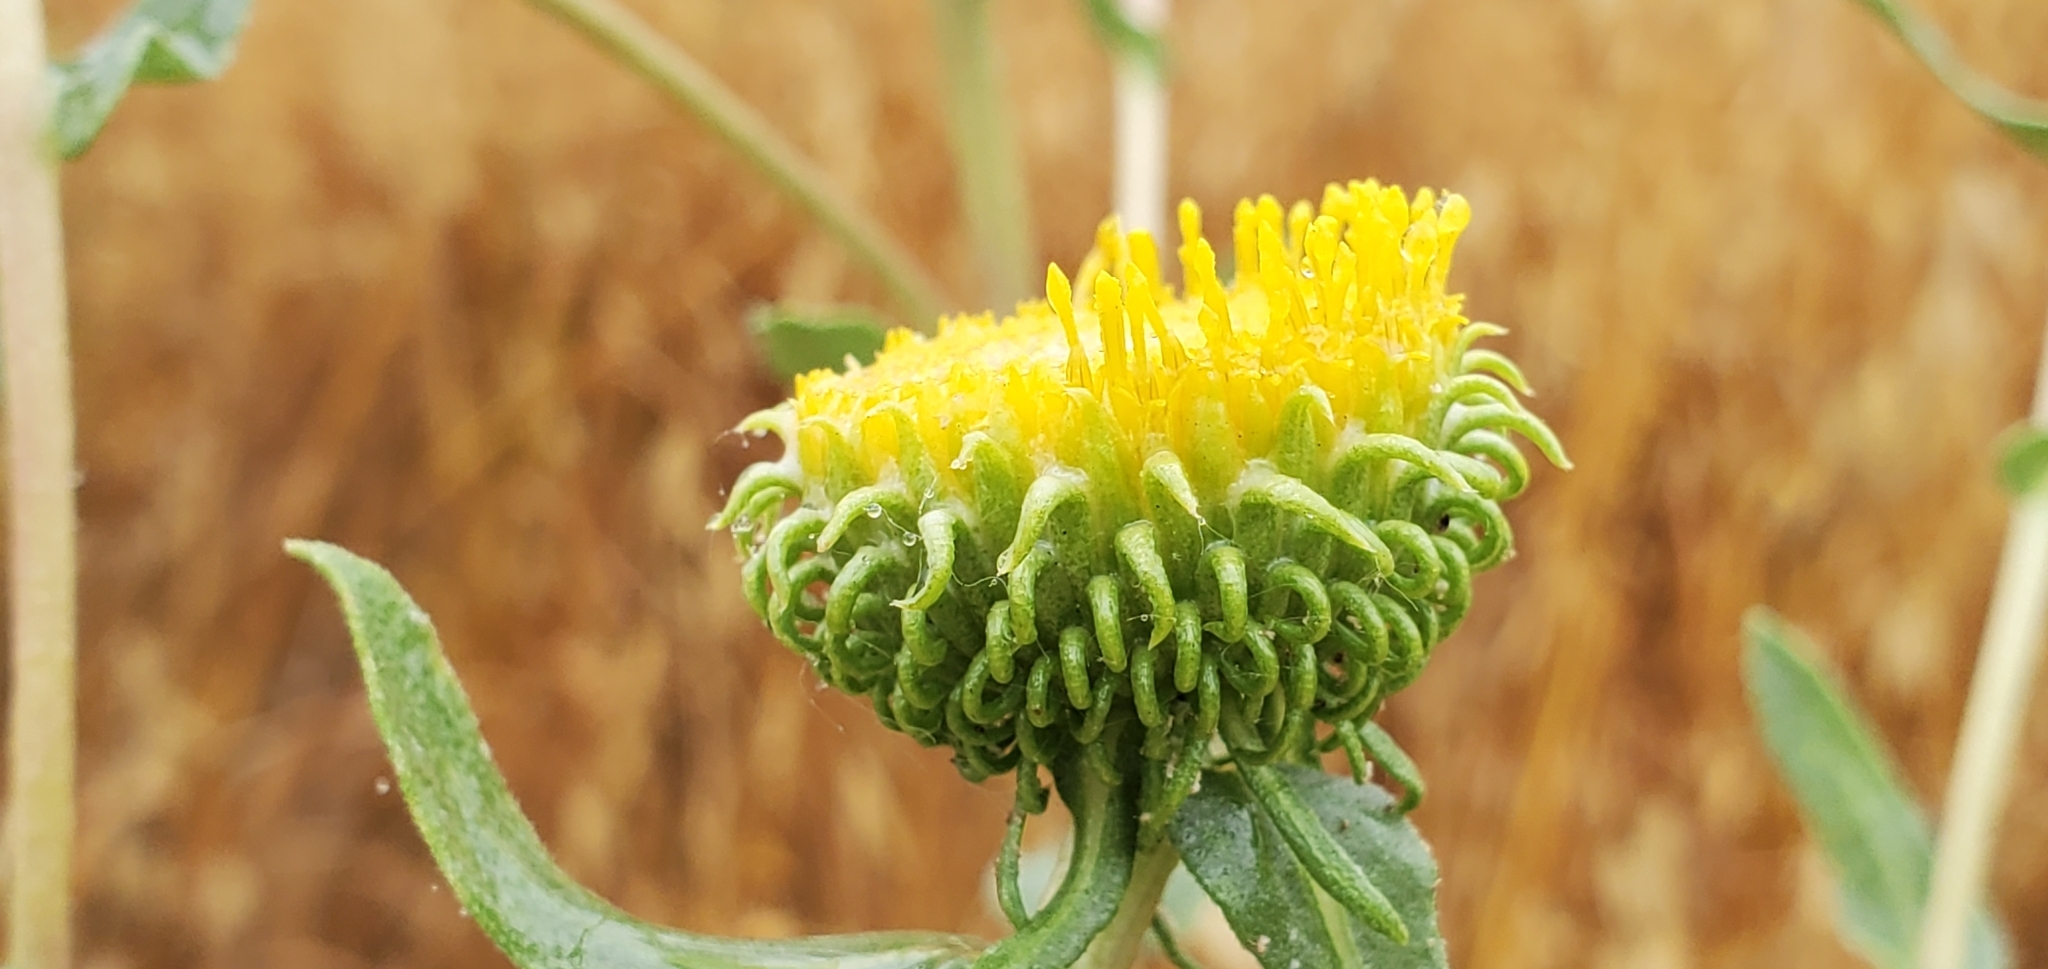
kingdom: Plantae
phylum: Tracheophyta
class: Magnoliopsida
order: Asterales
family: Asteraceae
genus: Grindelia
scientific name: Grindelia hirsutula
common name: Hairy gumweed
